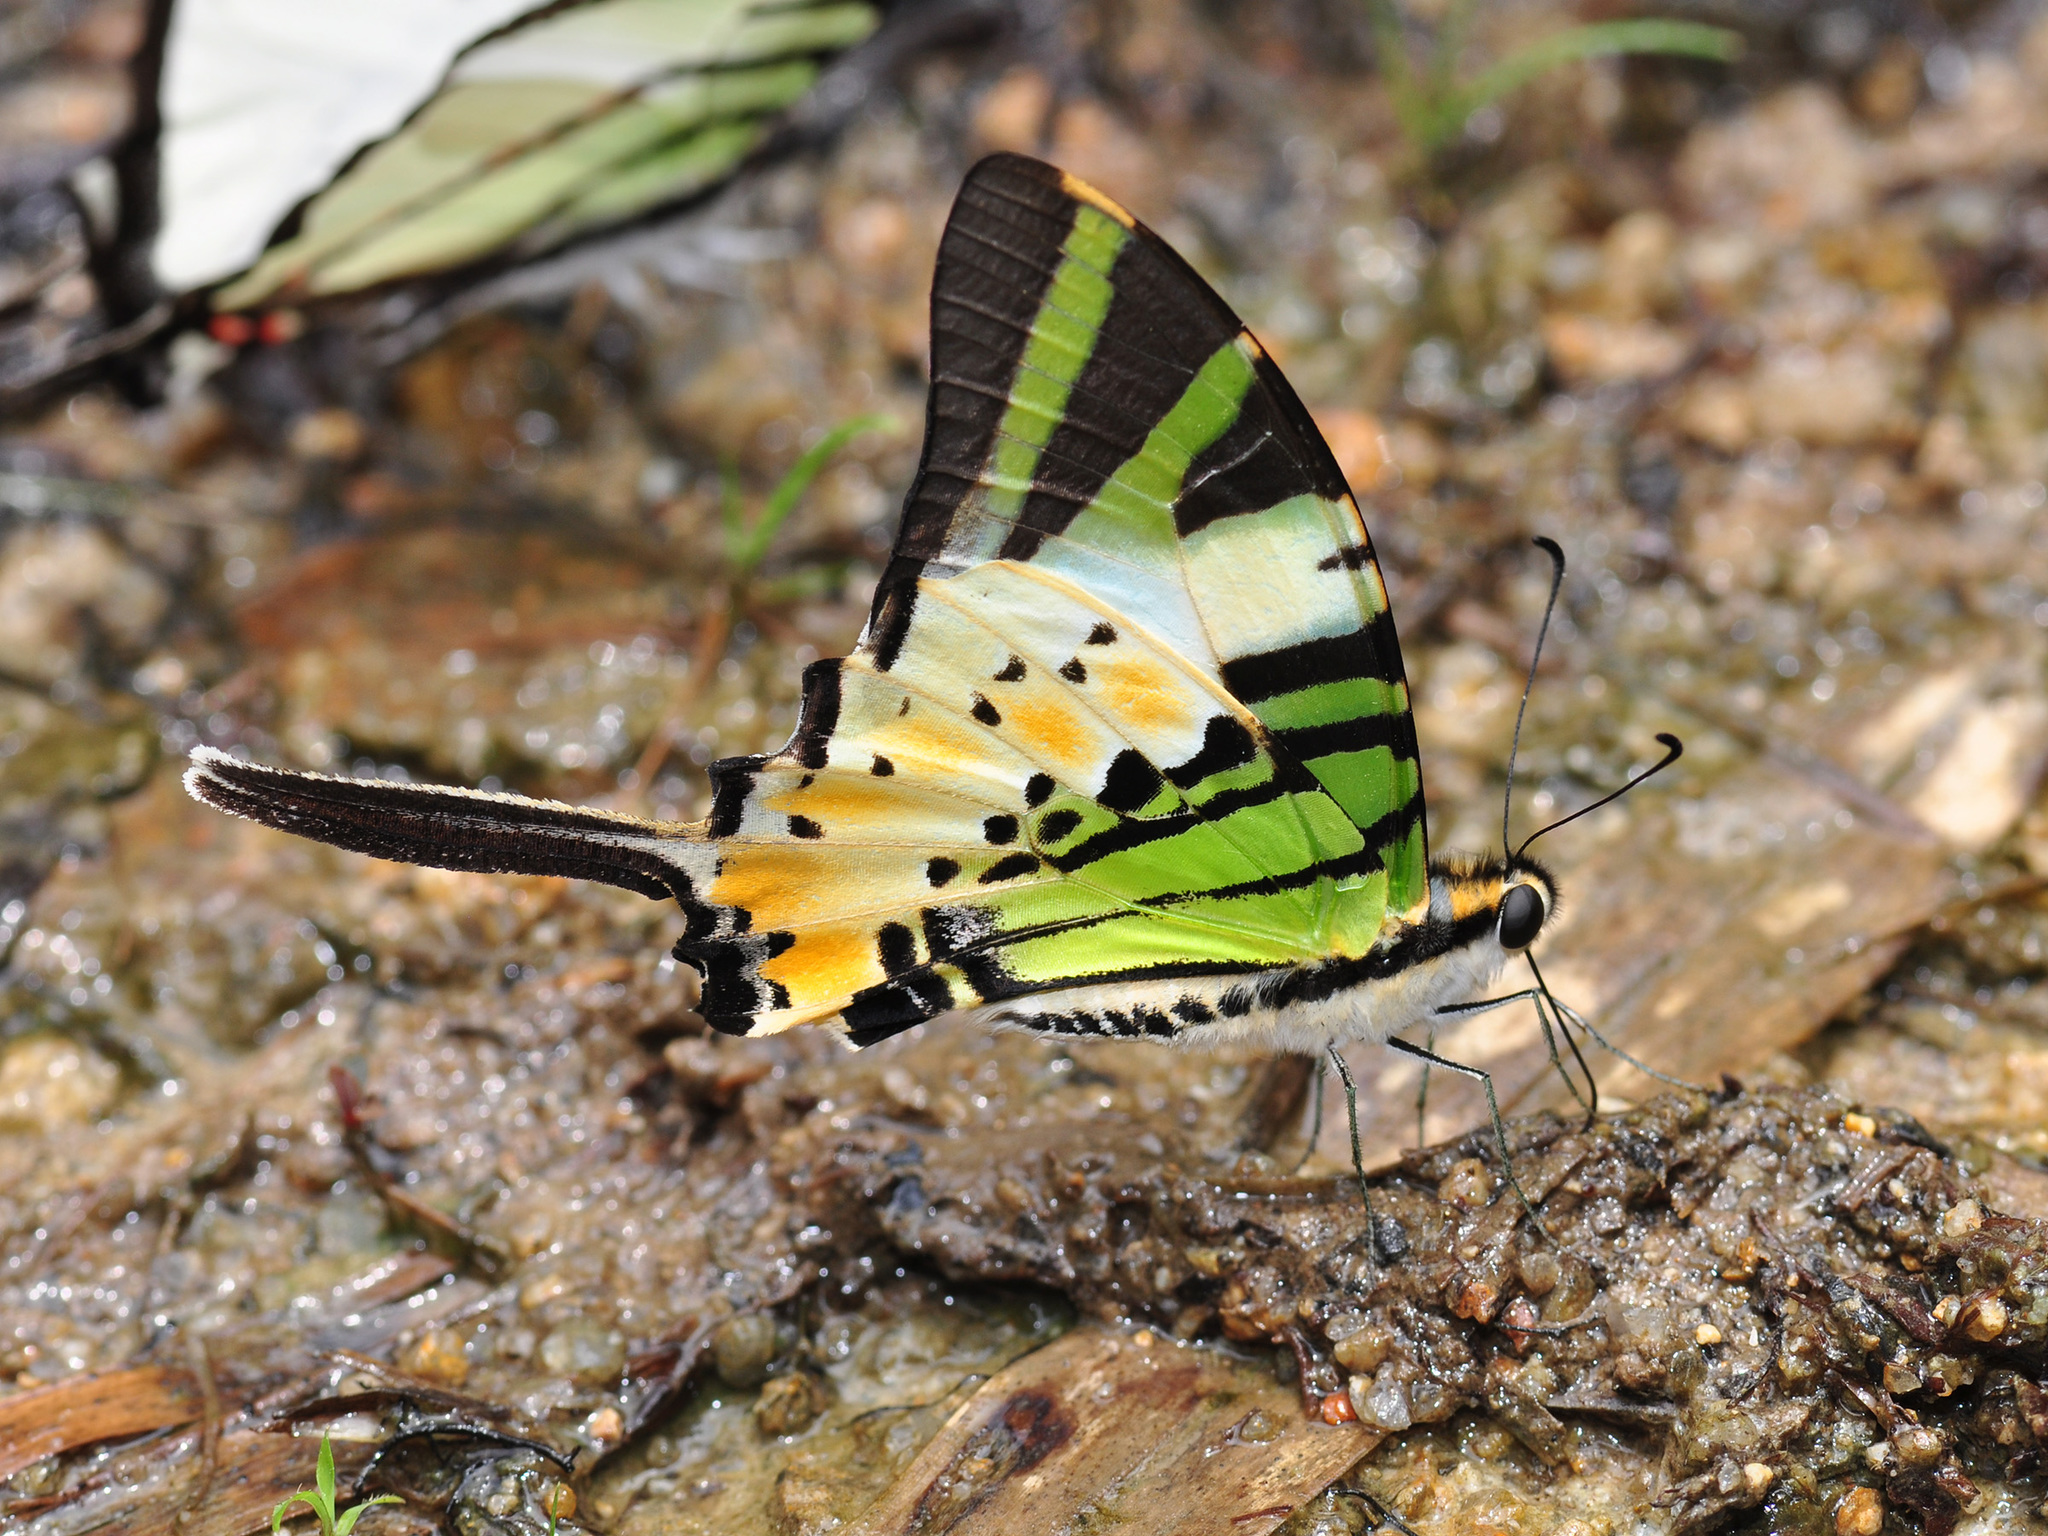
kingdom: Animalia
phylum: Arthropoda
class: Insecta
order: Lepidoptera
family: Papilionidae
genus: Graphium
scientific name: Graphium antiphates
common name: Fivebar swordtail
